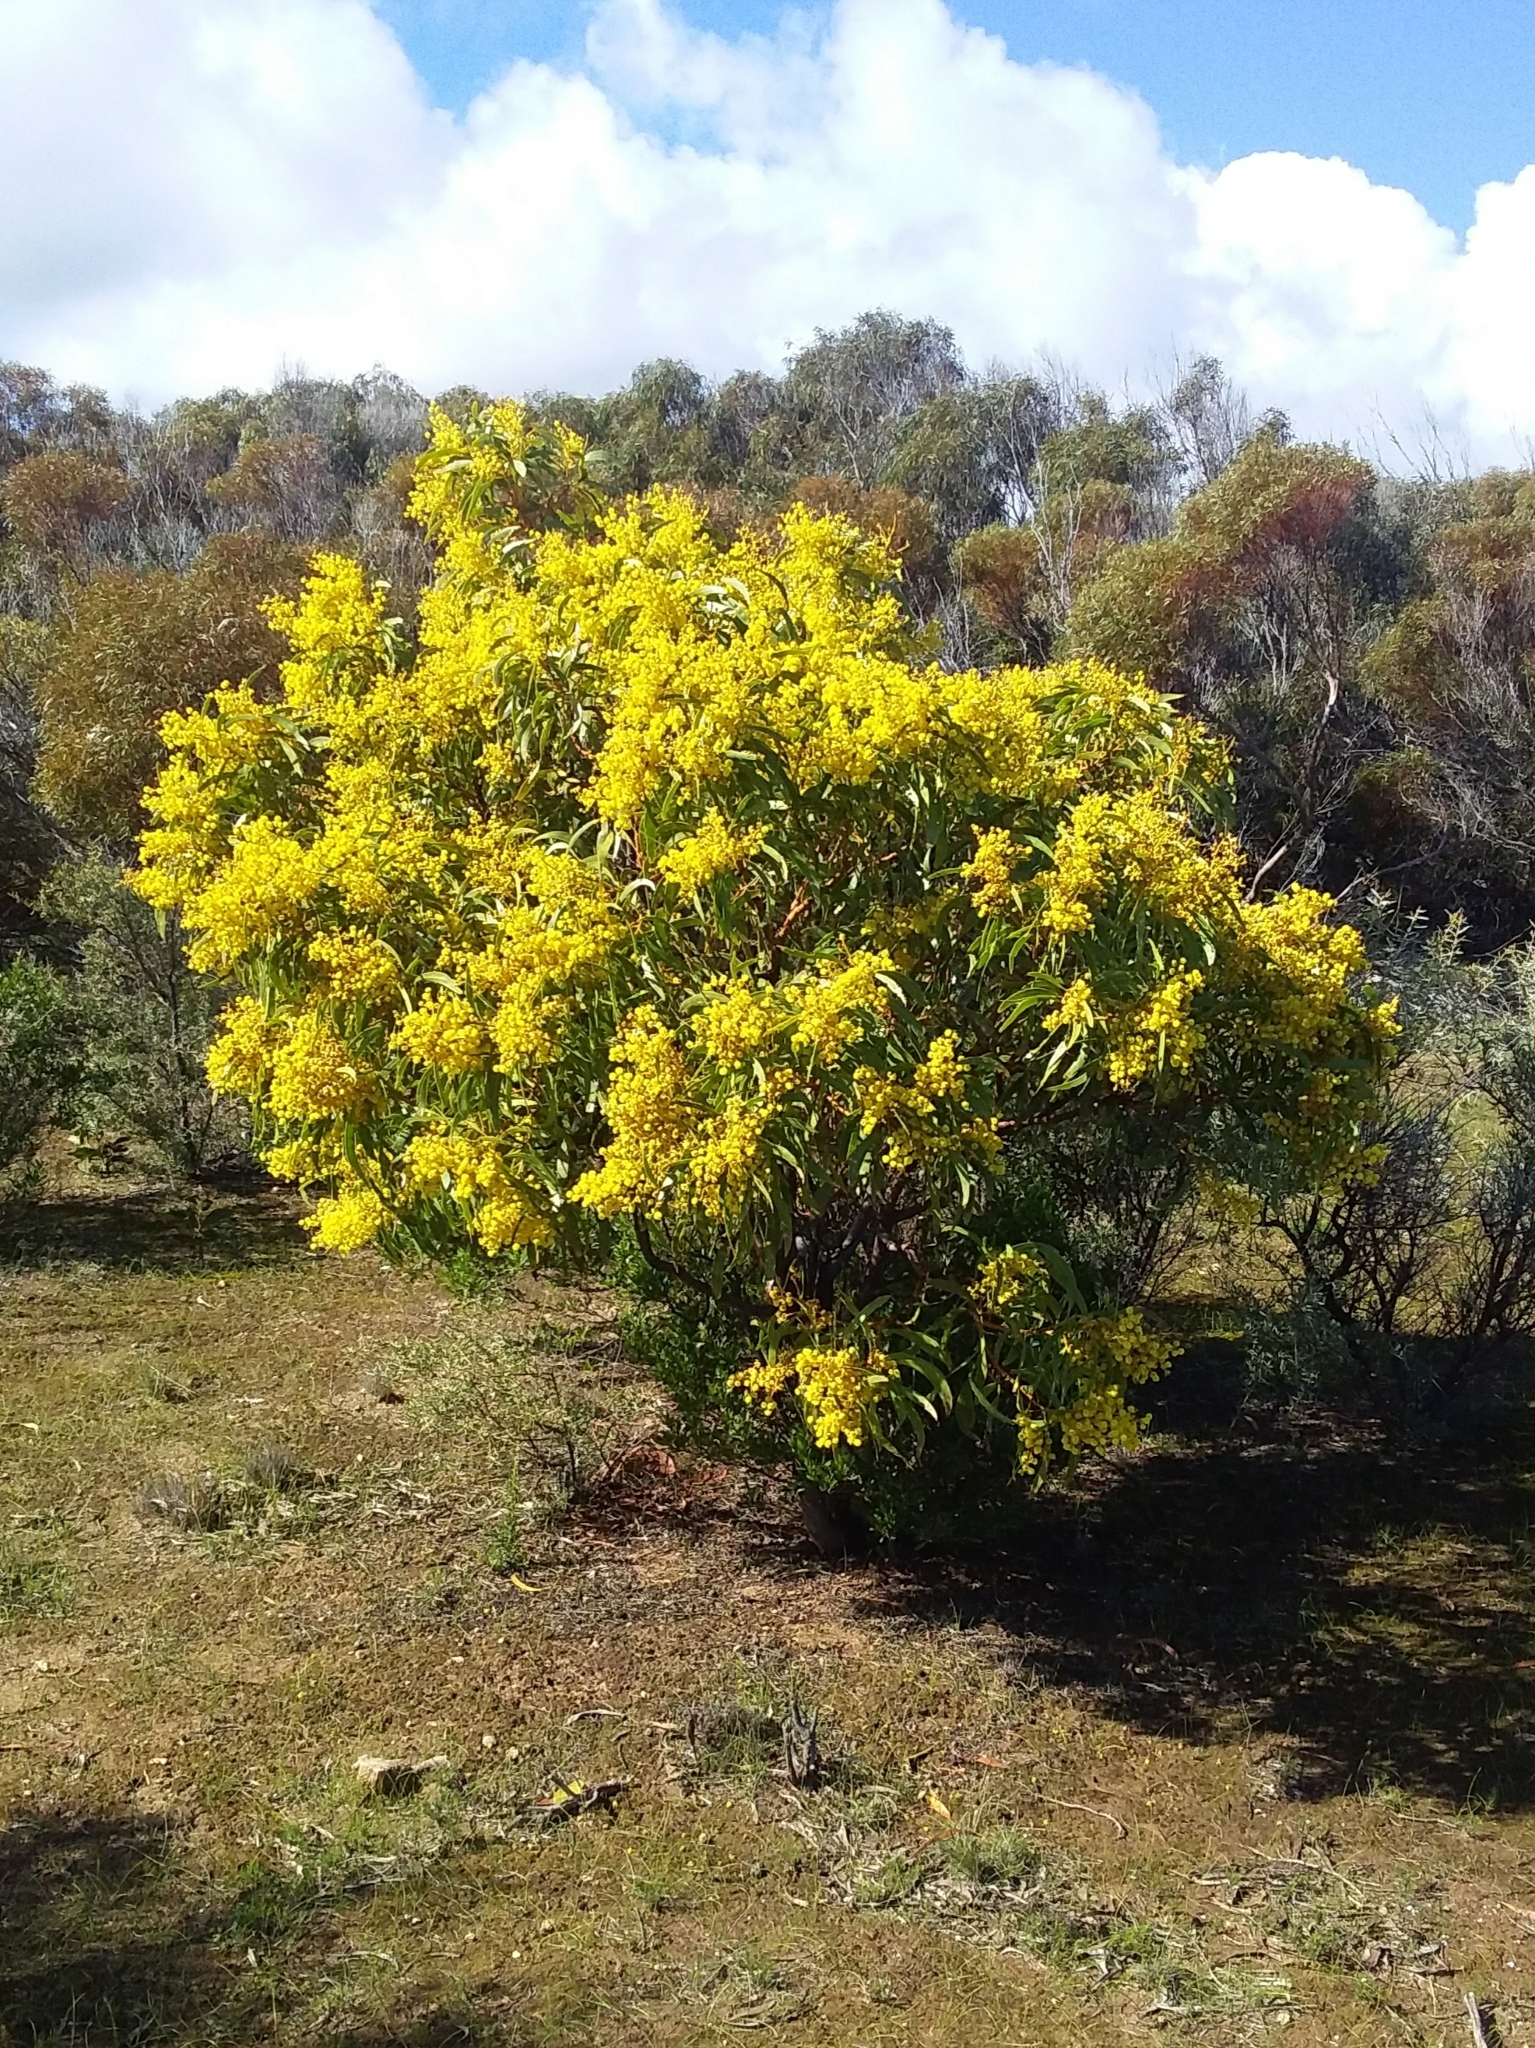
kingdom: Plantae
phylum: Tracheophyta
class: Magnoliopsida
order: Fabales
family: Fabaceae
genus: Acacia
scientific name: Acacia pycnantha
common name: Golden wattle
